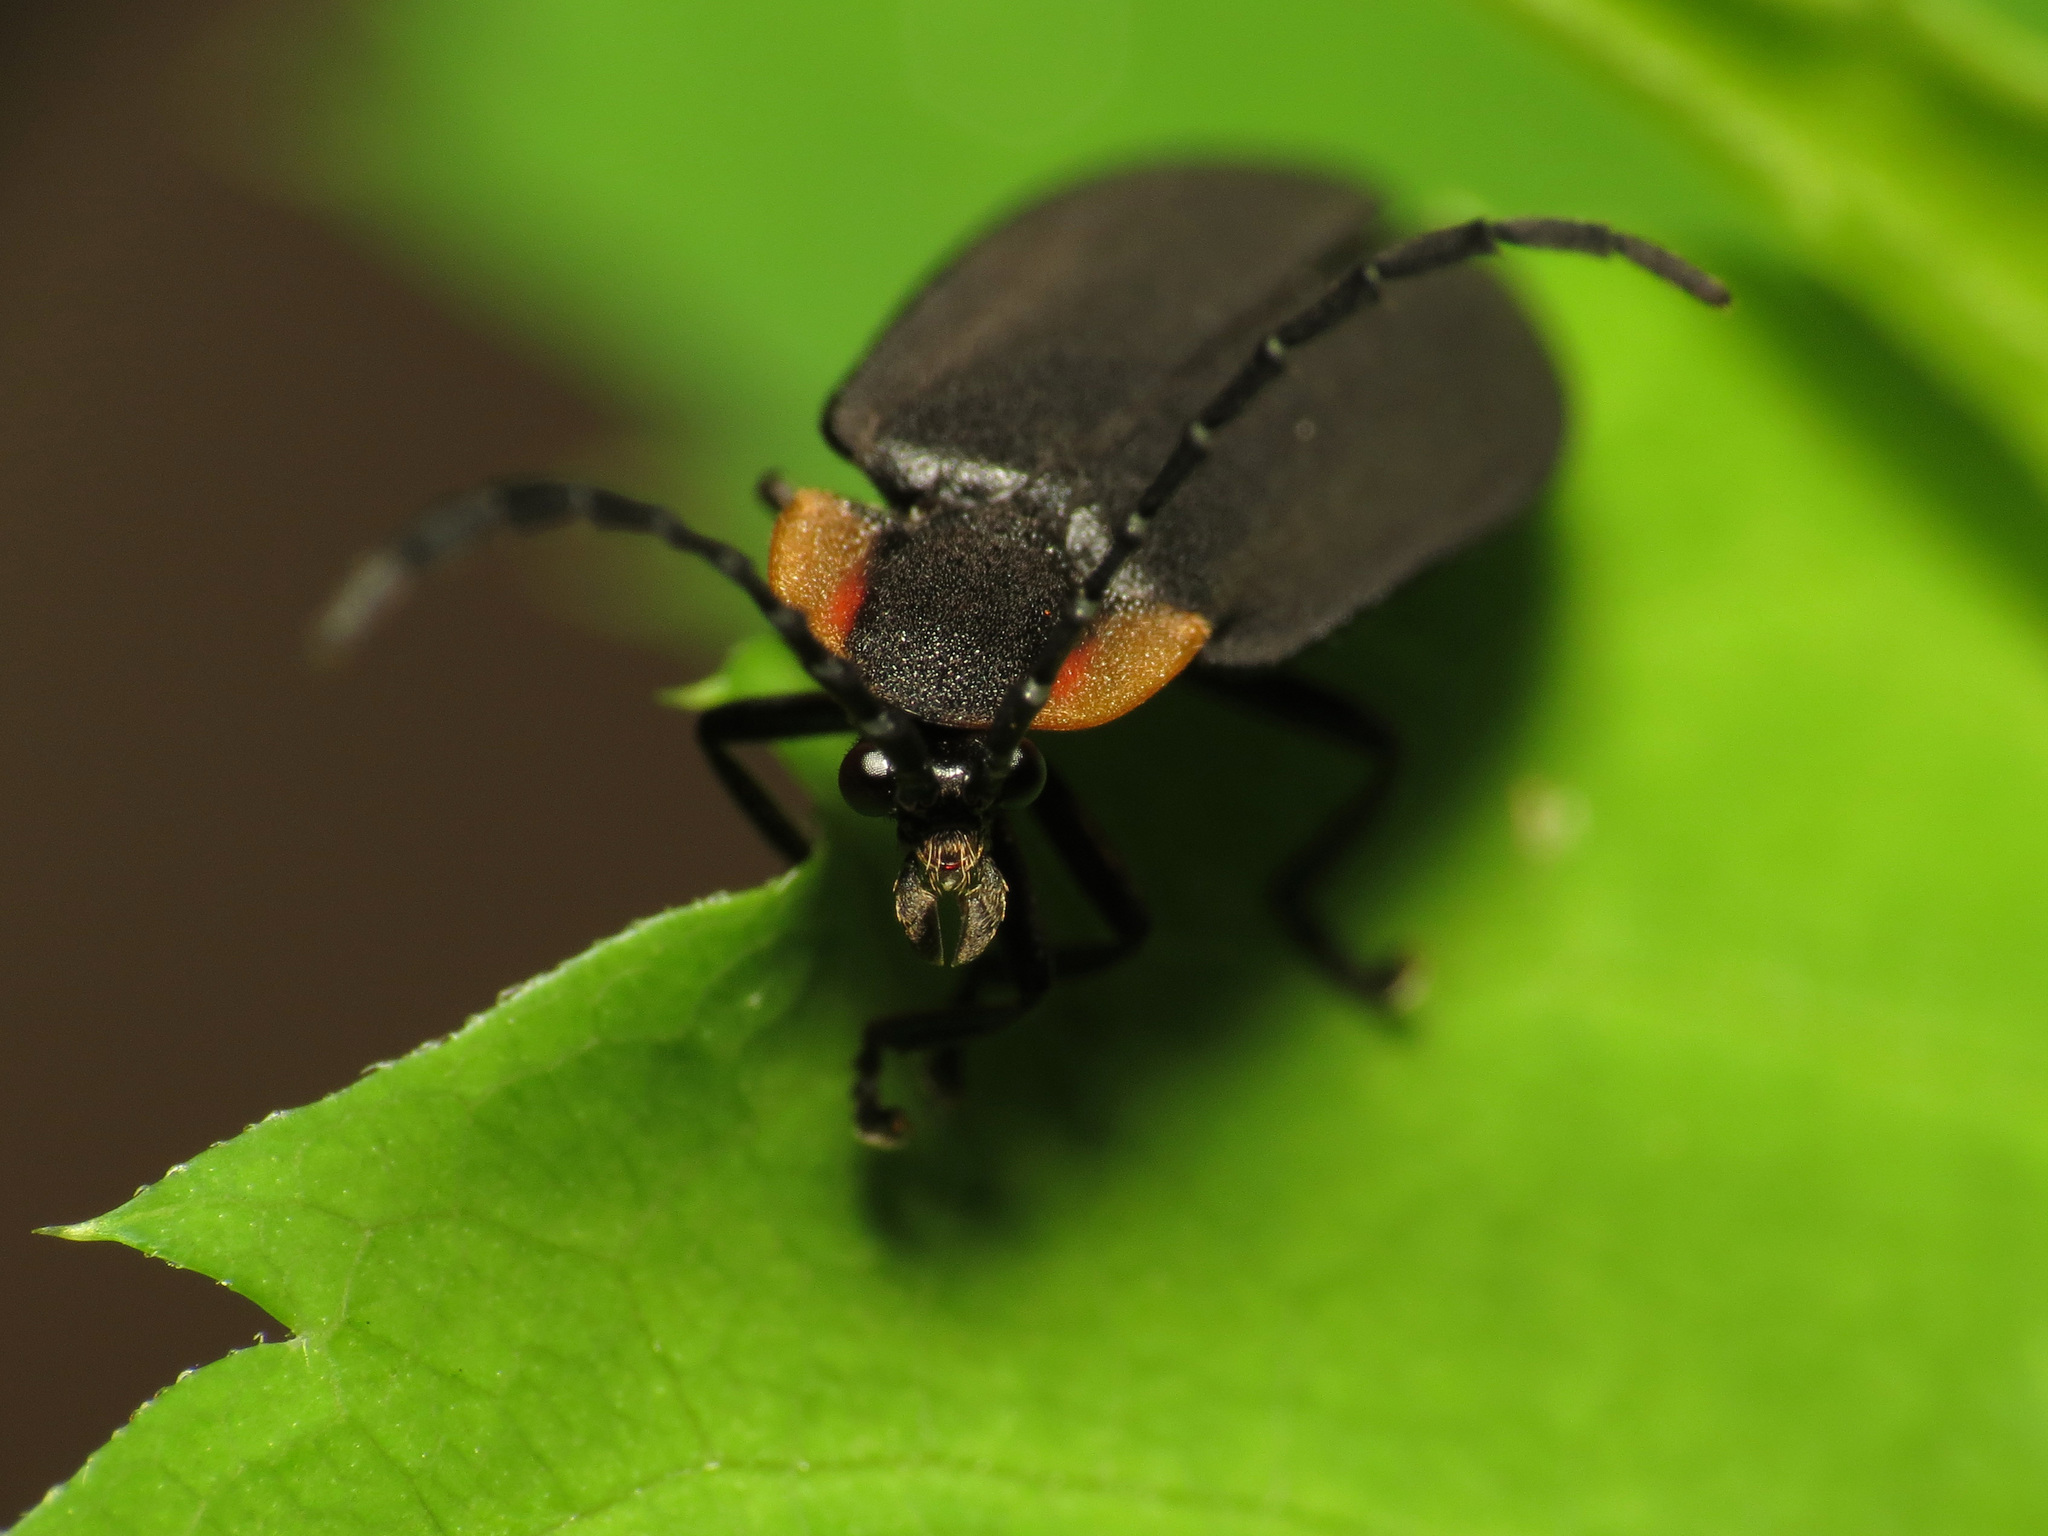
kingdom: Animalia
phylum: Arthropoda
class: Insecta
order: Coleoptera
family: Lampyridae
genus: Lucidota
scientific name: Lucidota atra
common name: Black firefly
